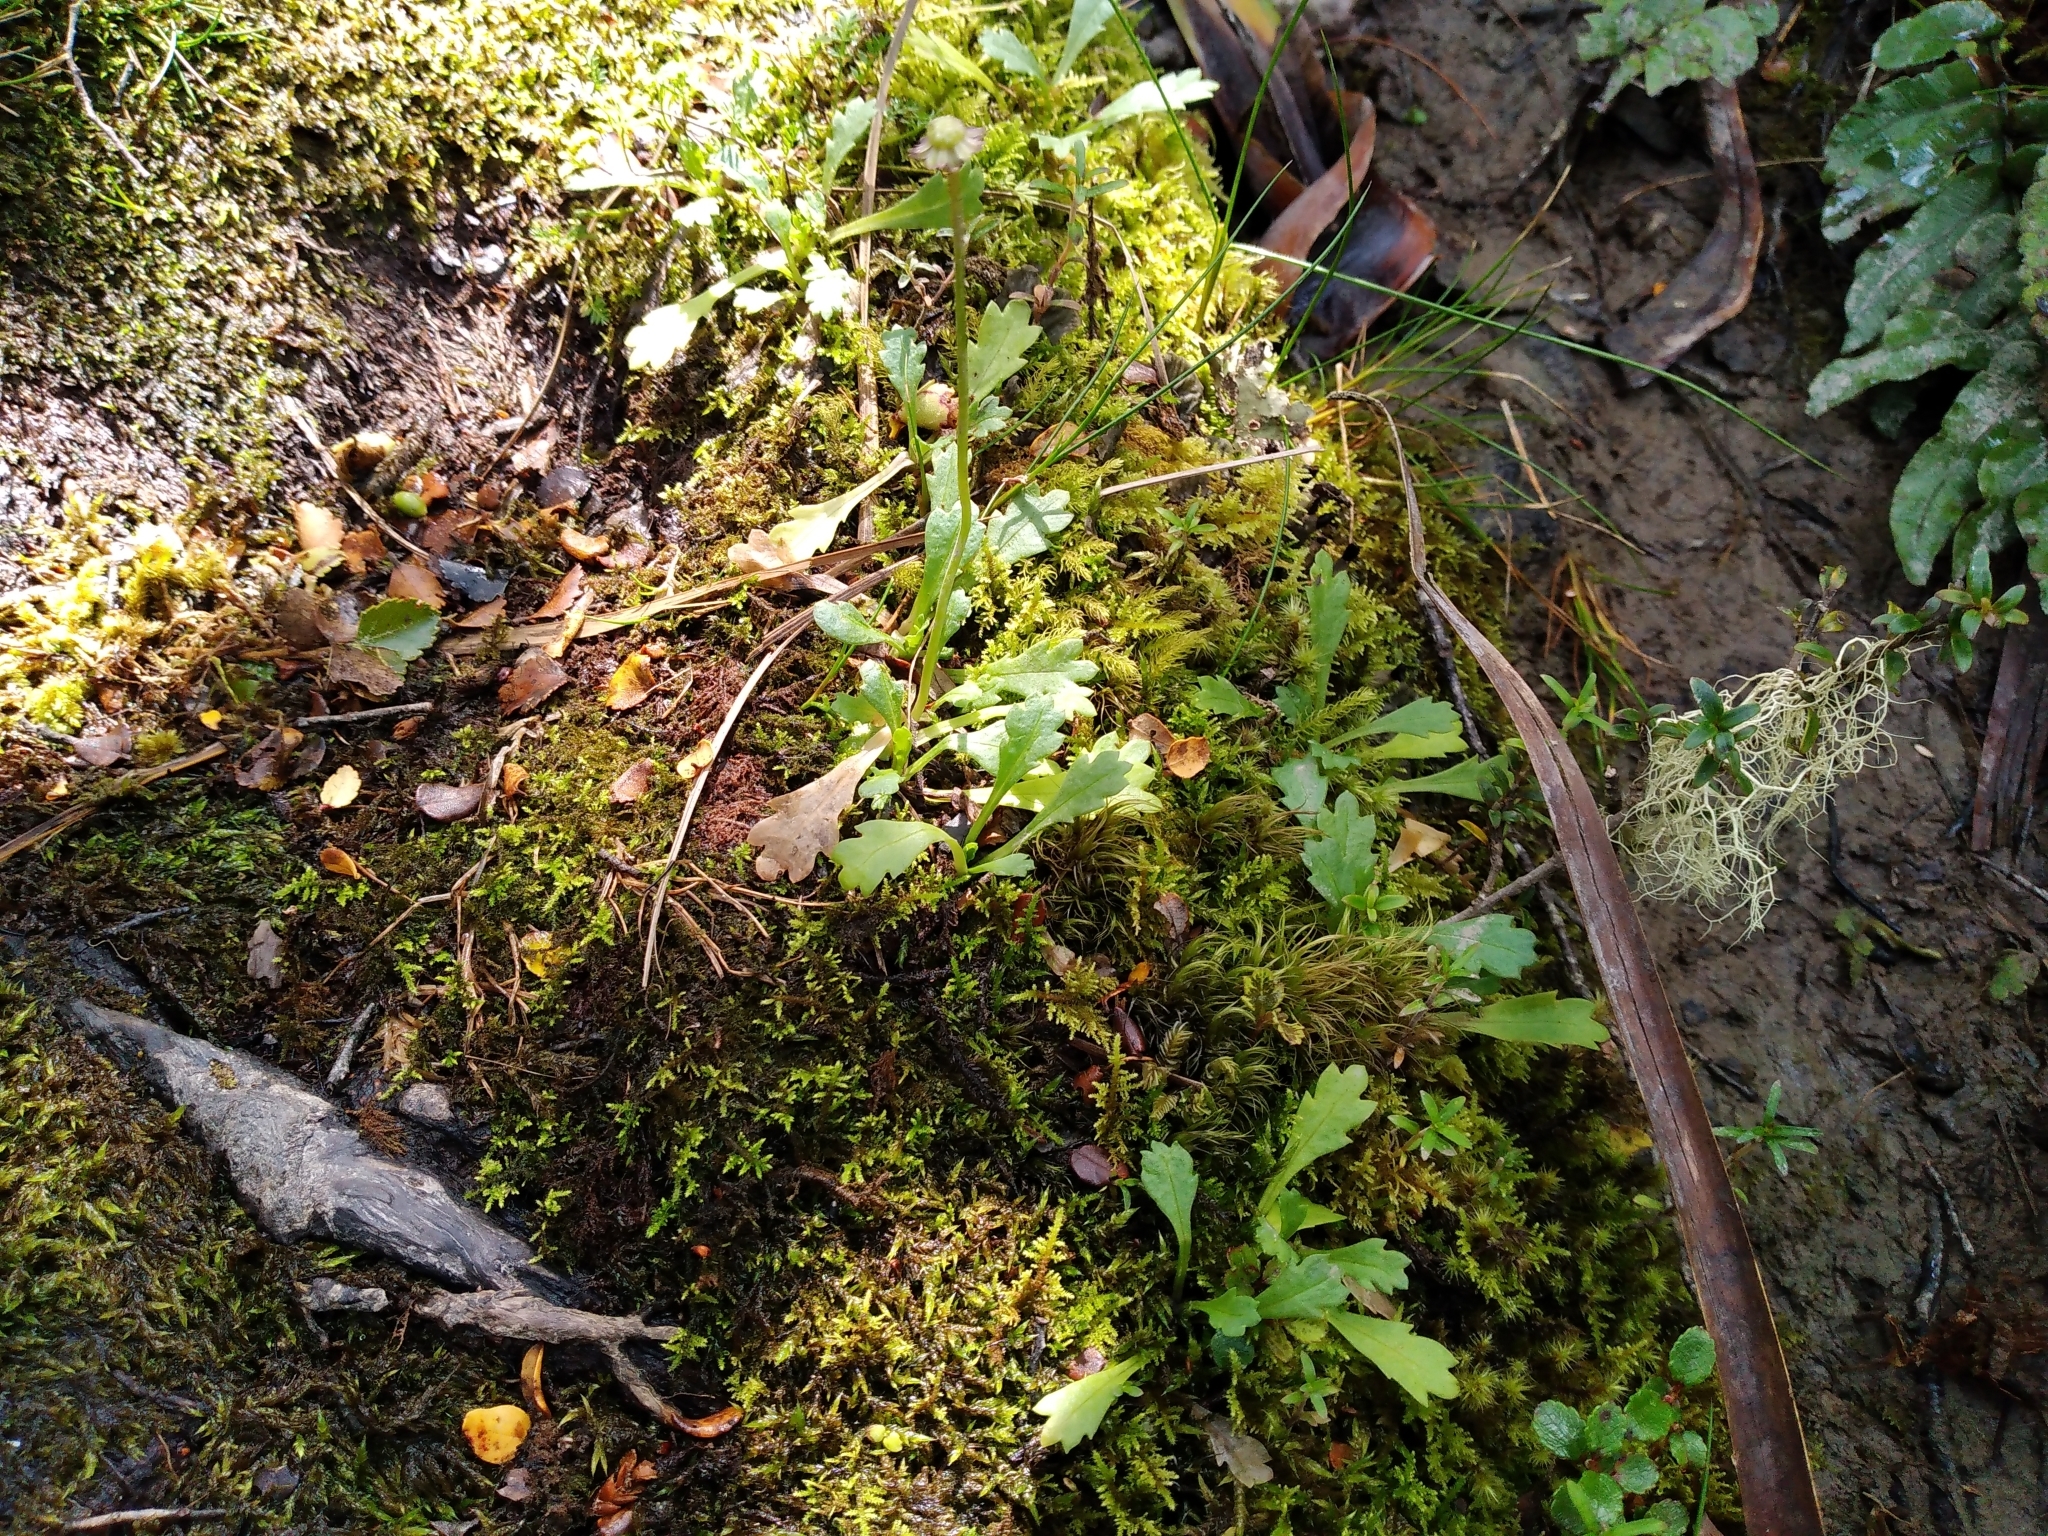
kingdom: Plantae
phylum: Tracheophyta
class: Magnoliopsida
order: Asterales
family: Asteraceae
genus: Brachyscome
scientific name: Brachyscome radicata
